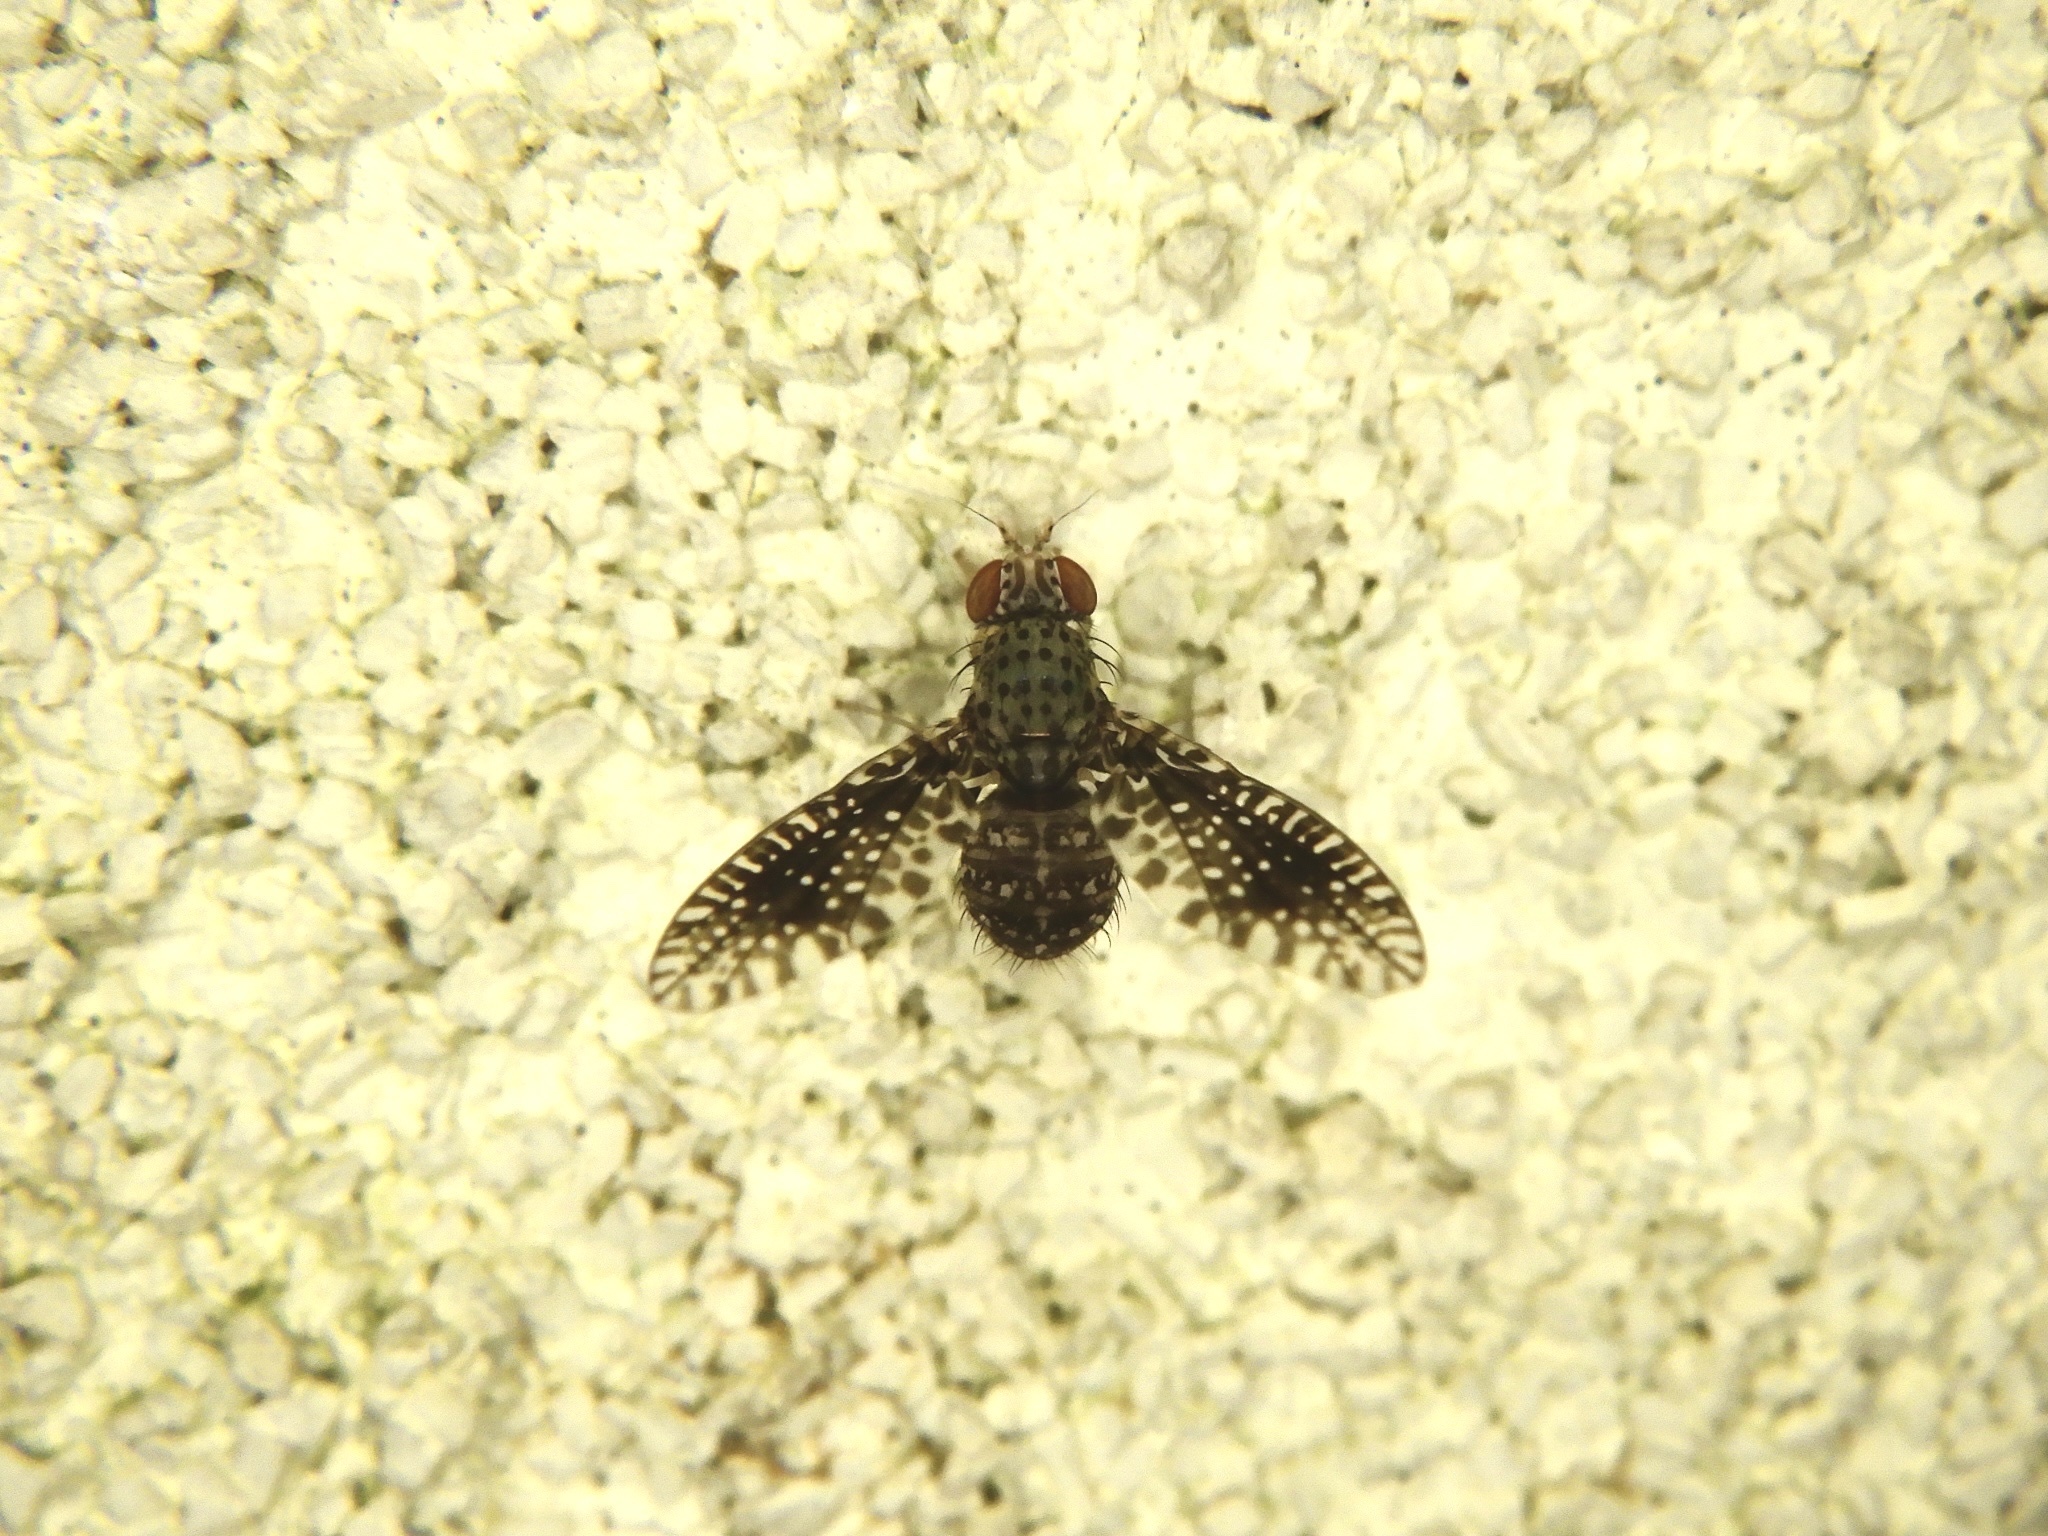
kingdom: Animalia
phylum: Arthropoda
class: Insecta
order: Diptera
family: Lauxaniidae
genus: Noeetomima
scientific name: Noeetomima aberrans
